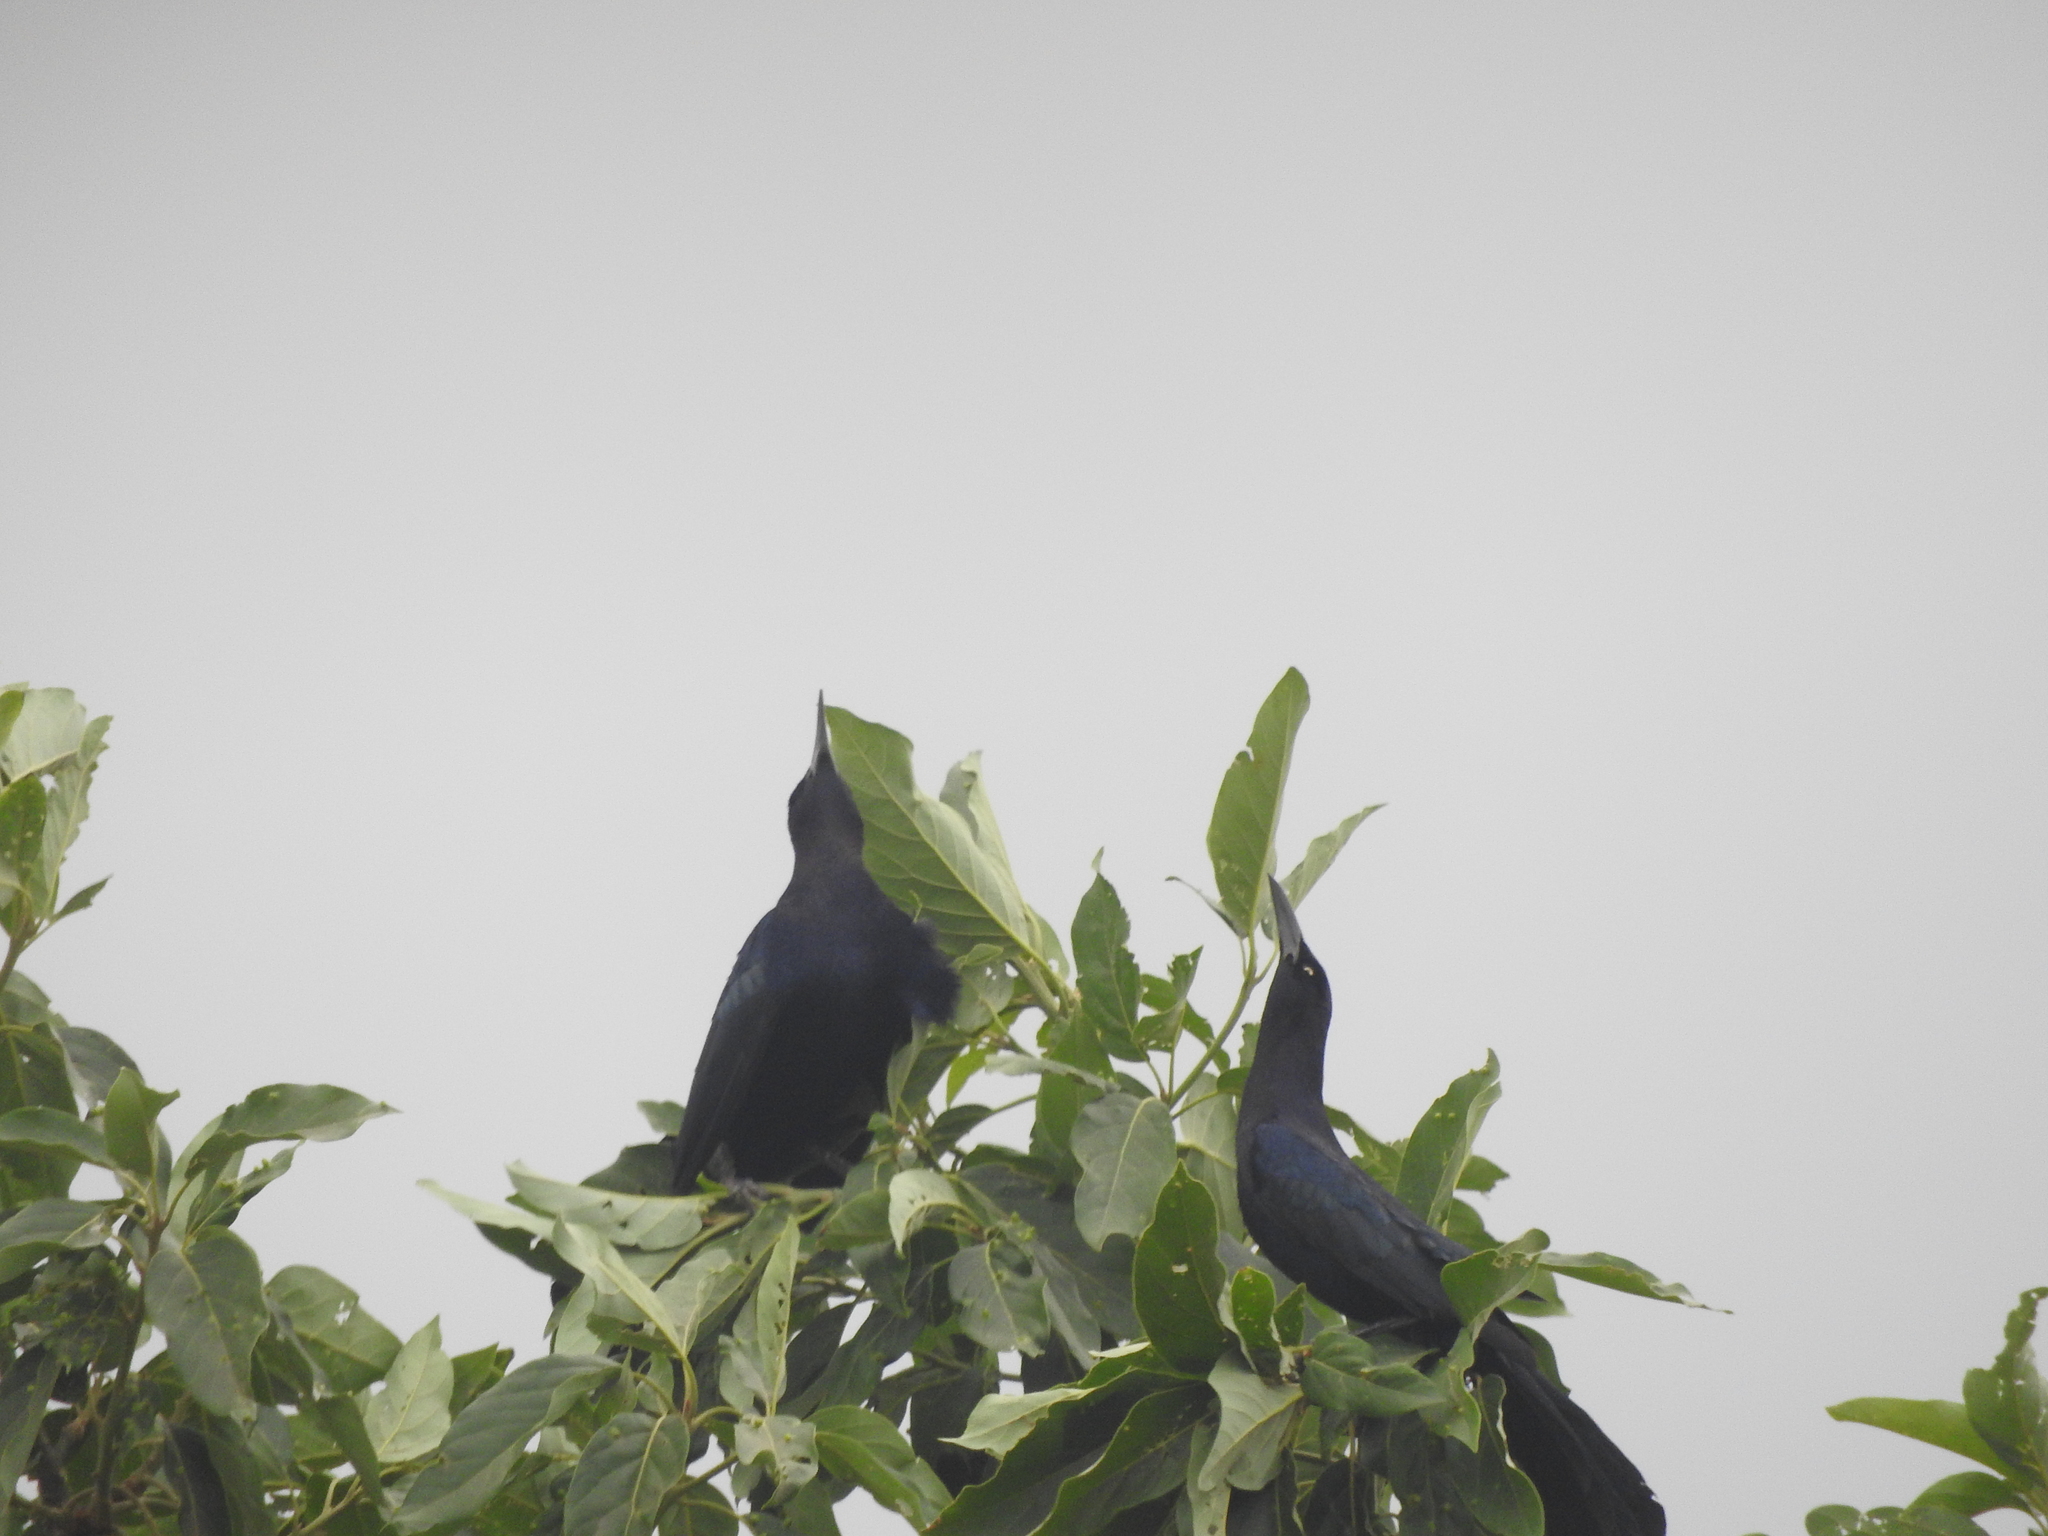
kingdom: Animalia
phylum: Chordata
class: Aves
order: Passeriformes
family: Icteridae
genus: Quiscalus
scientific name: Quiscalus mexicanus
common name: Great-tailed grackle
